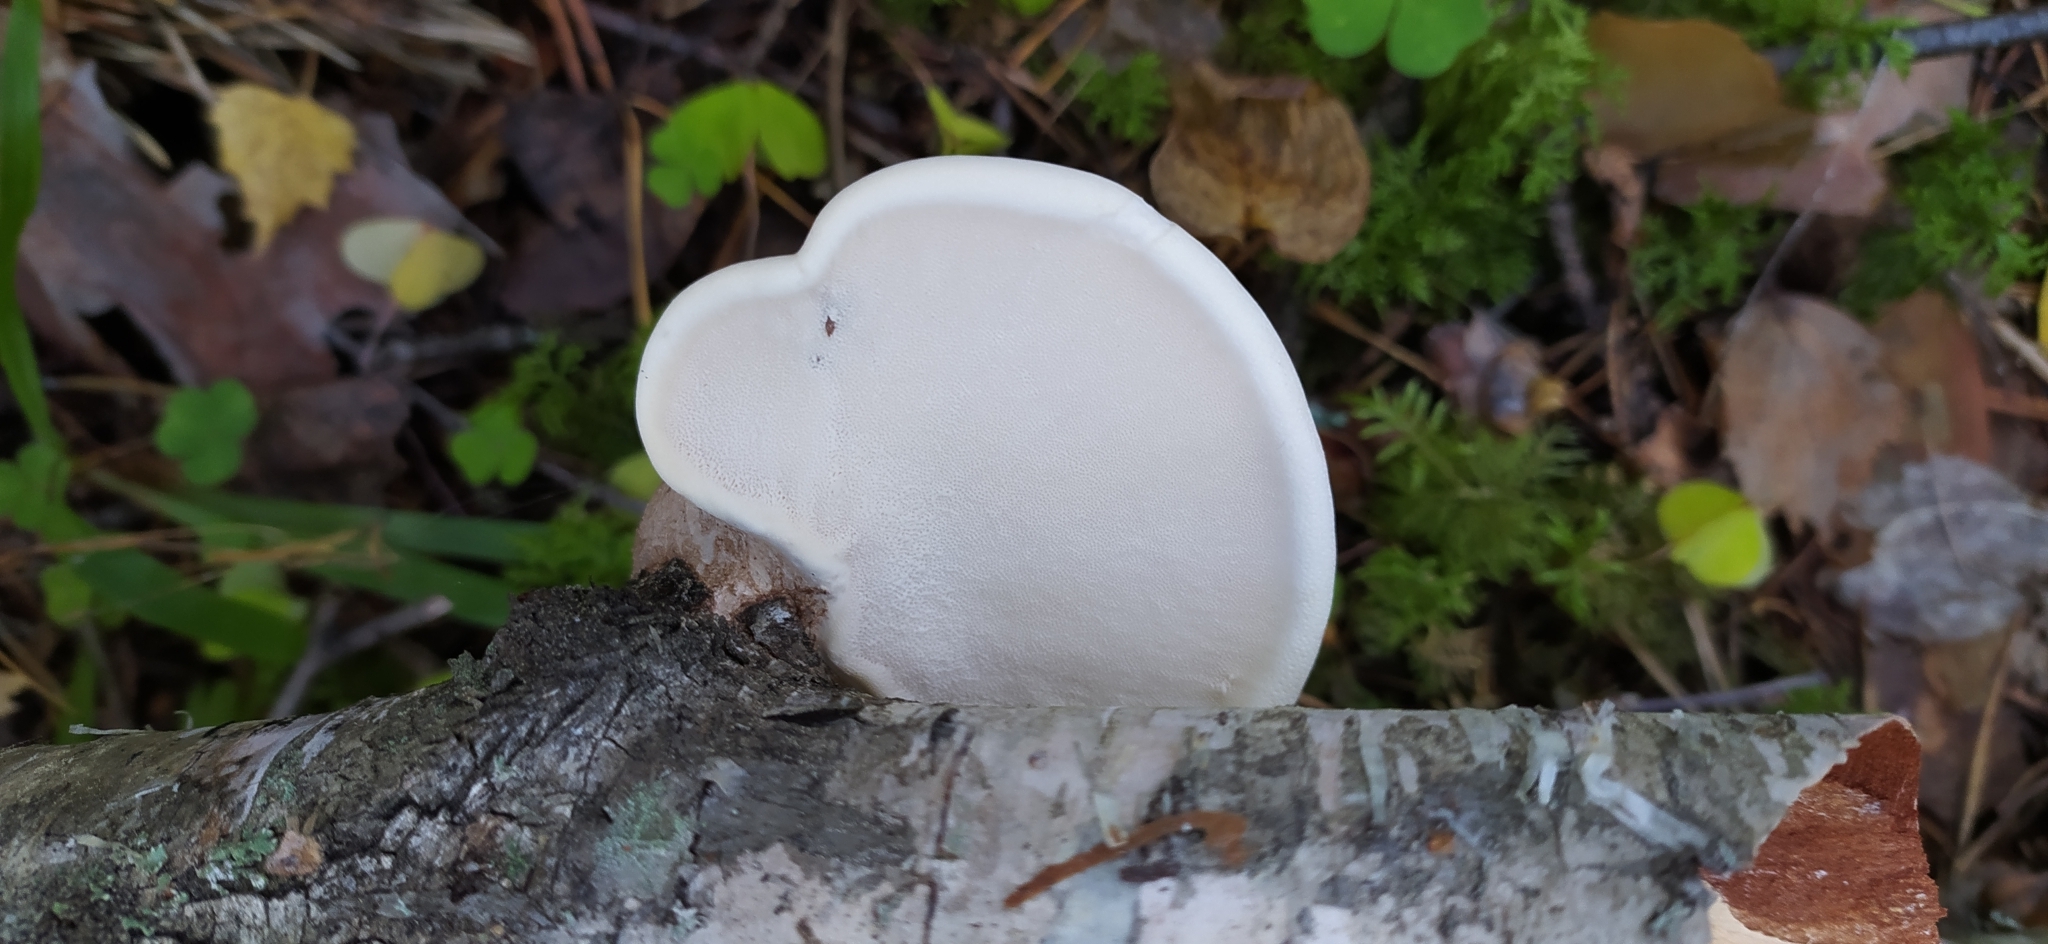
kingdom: Fungi
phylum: Basidiomycota
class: Agaricomycetes
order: Polyporales
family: Fomitopsidaceae
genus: Fomitopsis
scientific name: Fomitopsis betulina
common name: Birch polypore
